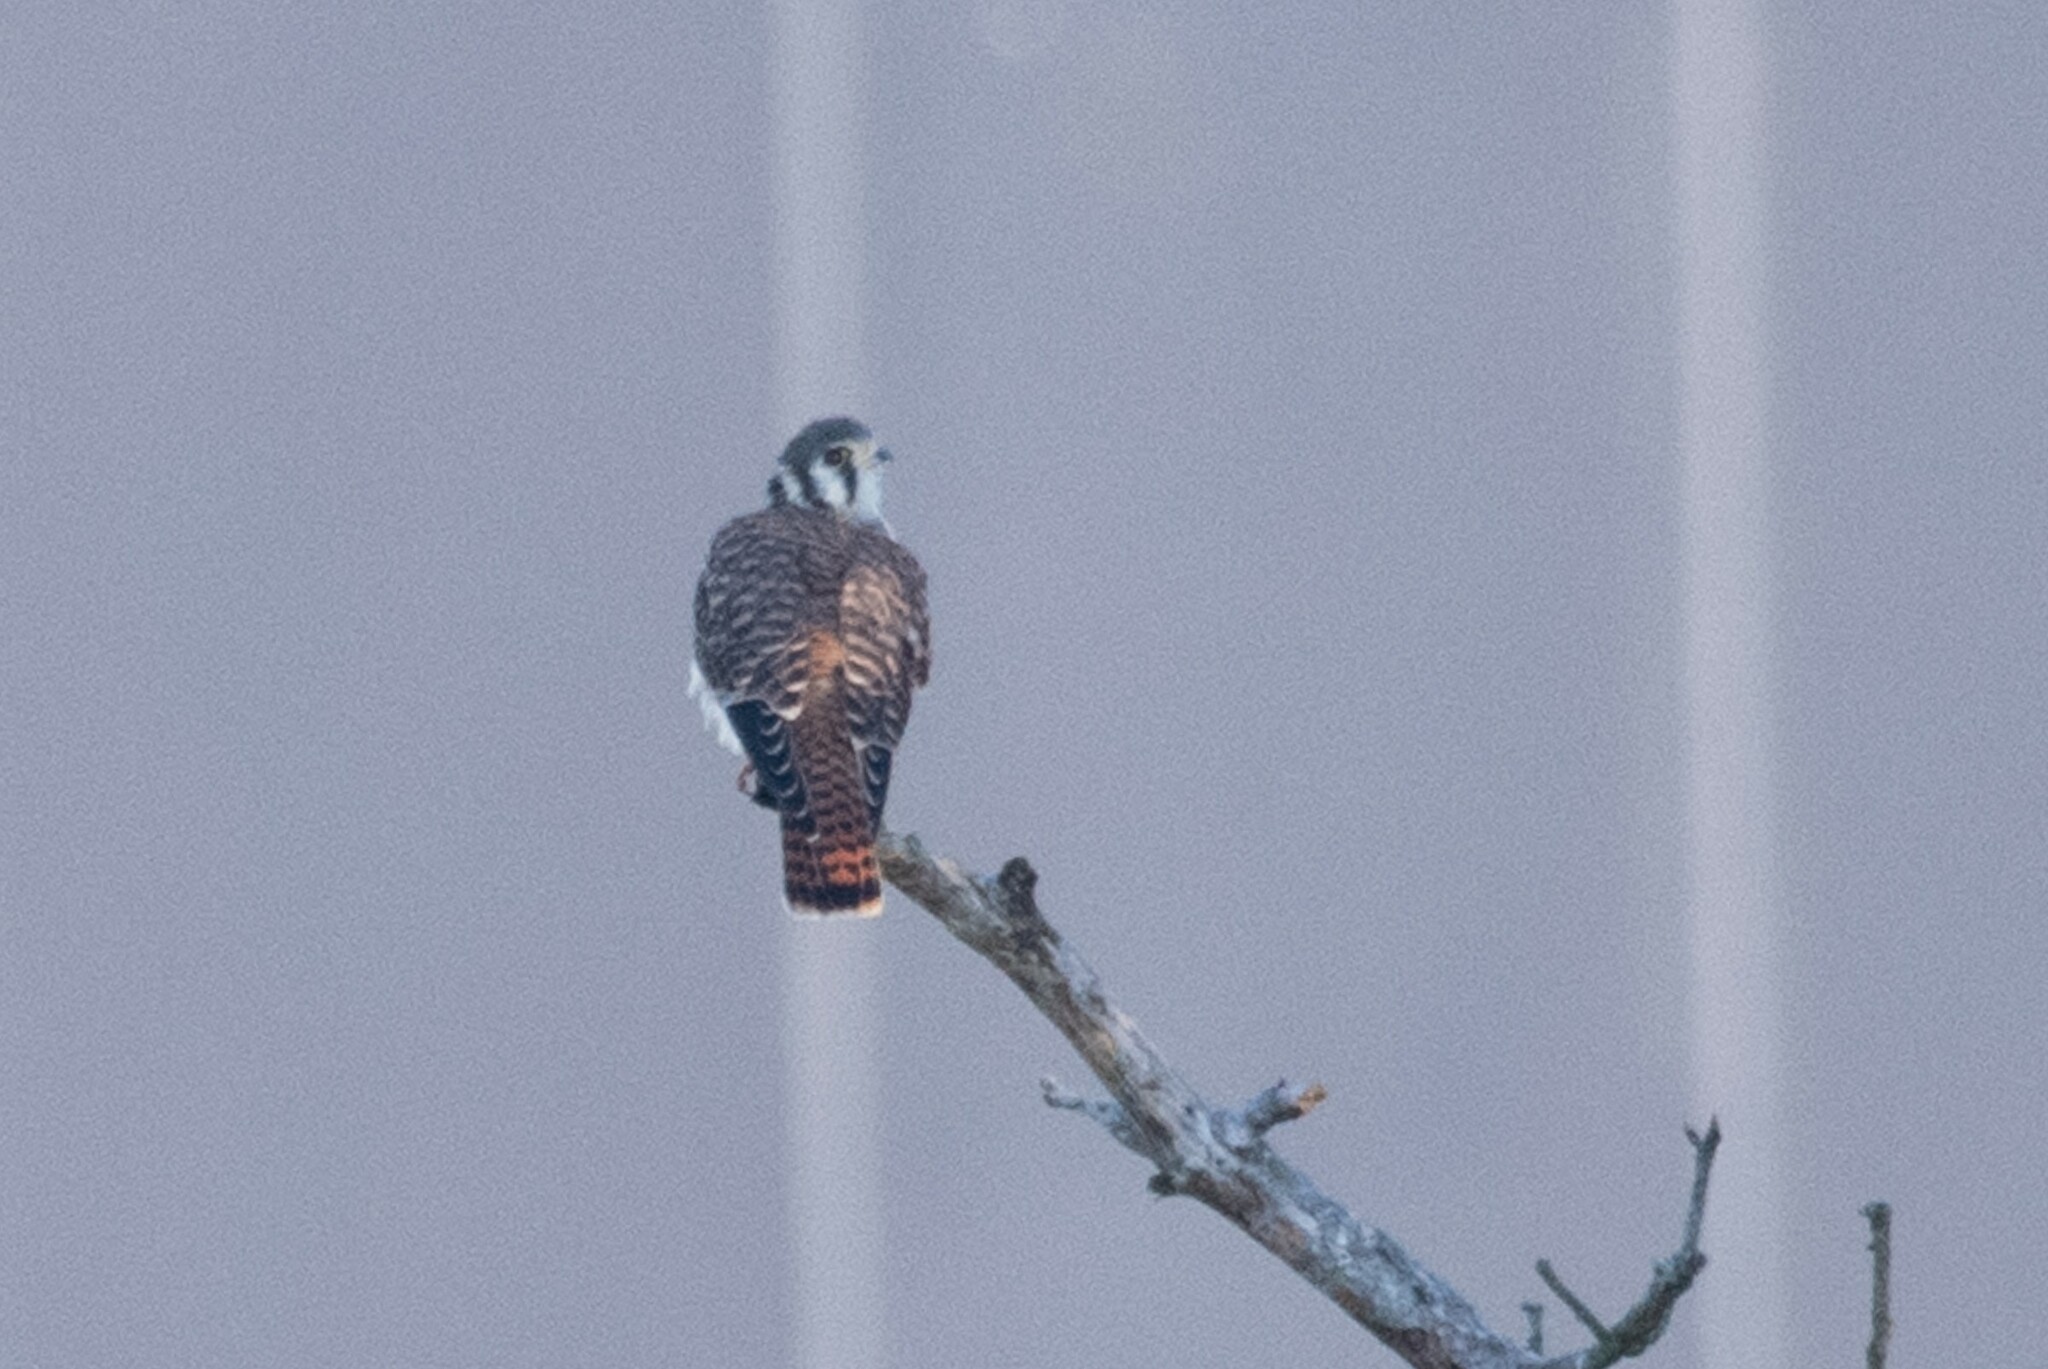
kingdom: Animalia
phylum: Chordata
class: Aves
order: Falconiformes
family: Falconidae
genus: Falco
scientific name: Falco sparverius
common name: American kestrel
